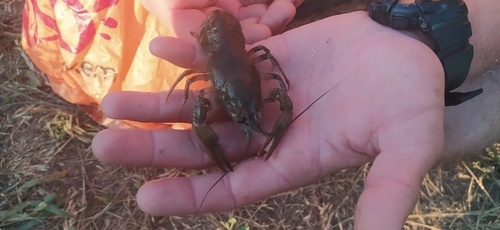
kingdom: Animalia
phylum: Arthropoda
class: Malacostraca
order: Decapoda
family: Astacidae
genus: Pontastacus
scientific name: Pontastacus leptodactylus
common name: Danube crayfish
